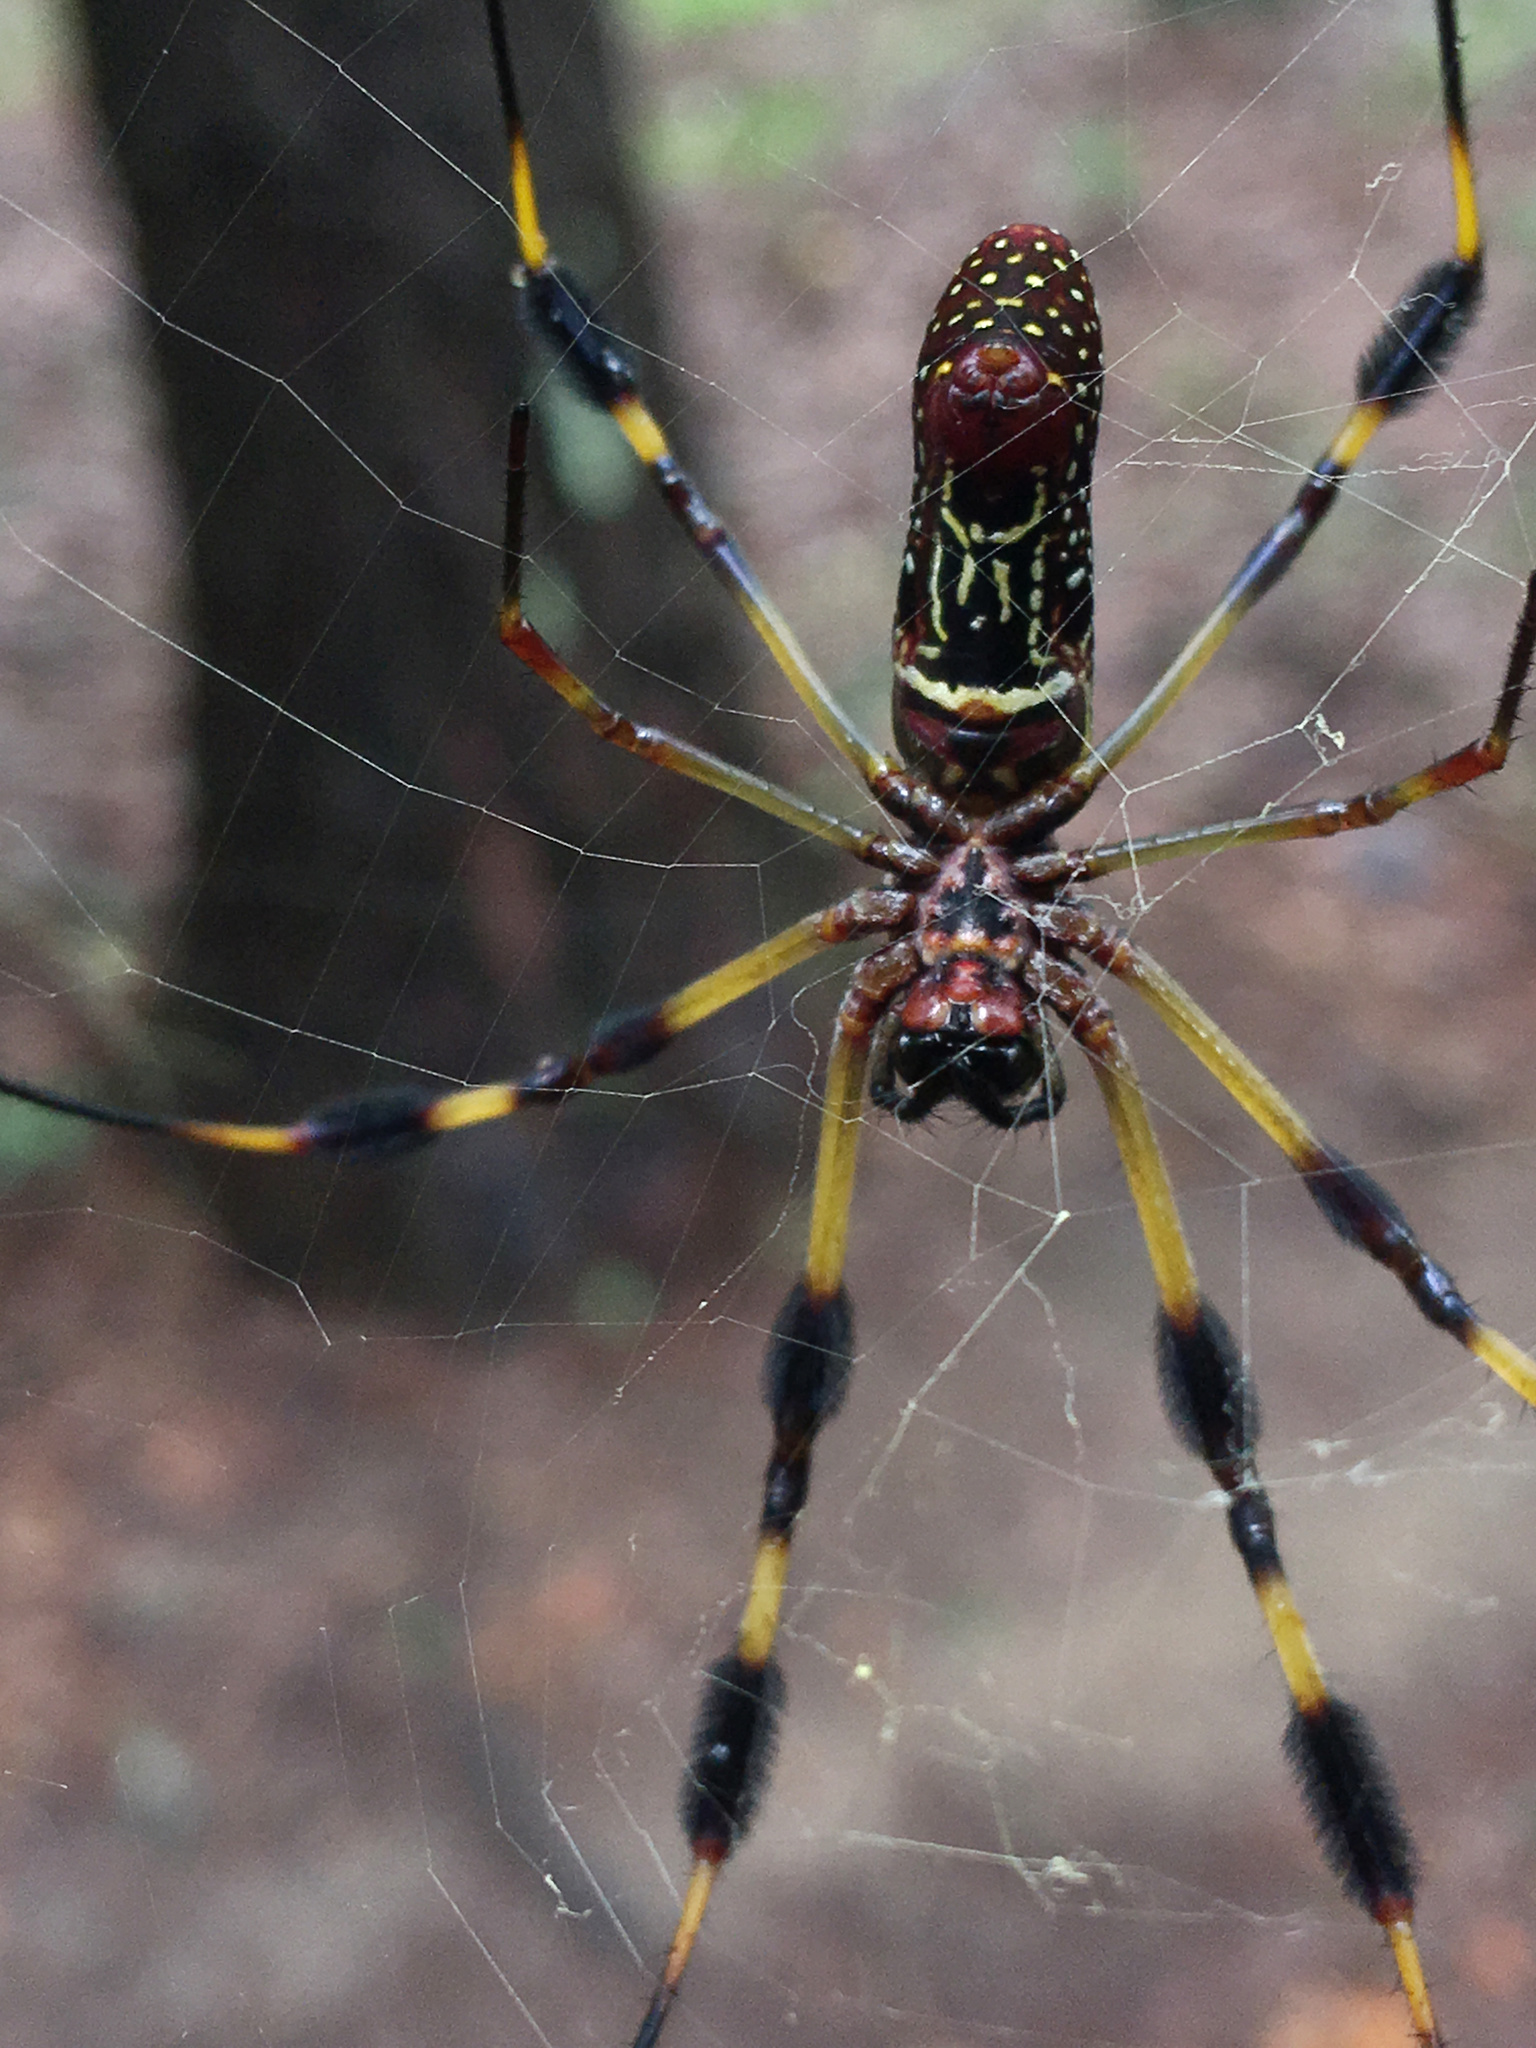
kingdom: Animalia
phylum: Arthropoda
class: Arachnida
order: Araneae
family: Araneidae
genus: Trichonephila
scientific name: Trichonephila clavipes
